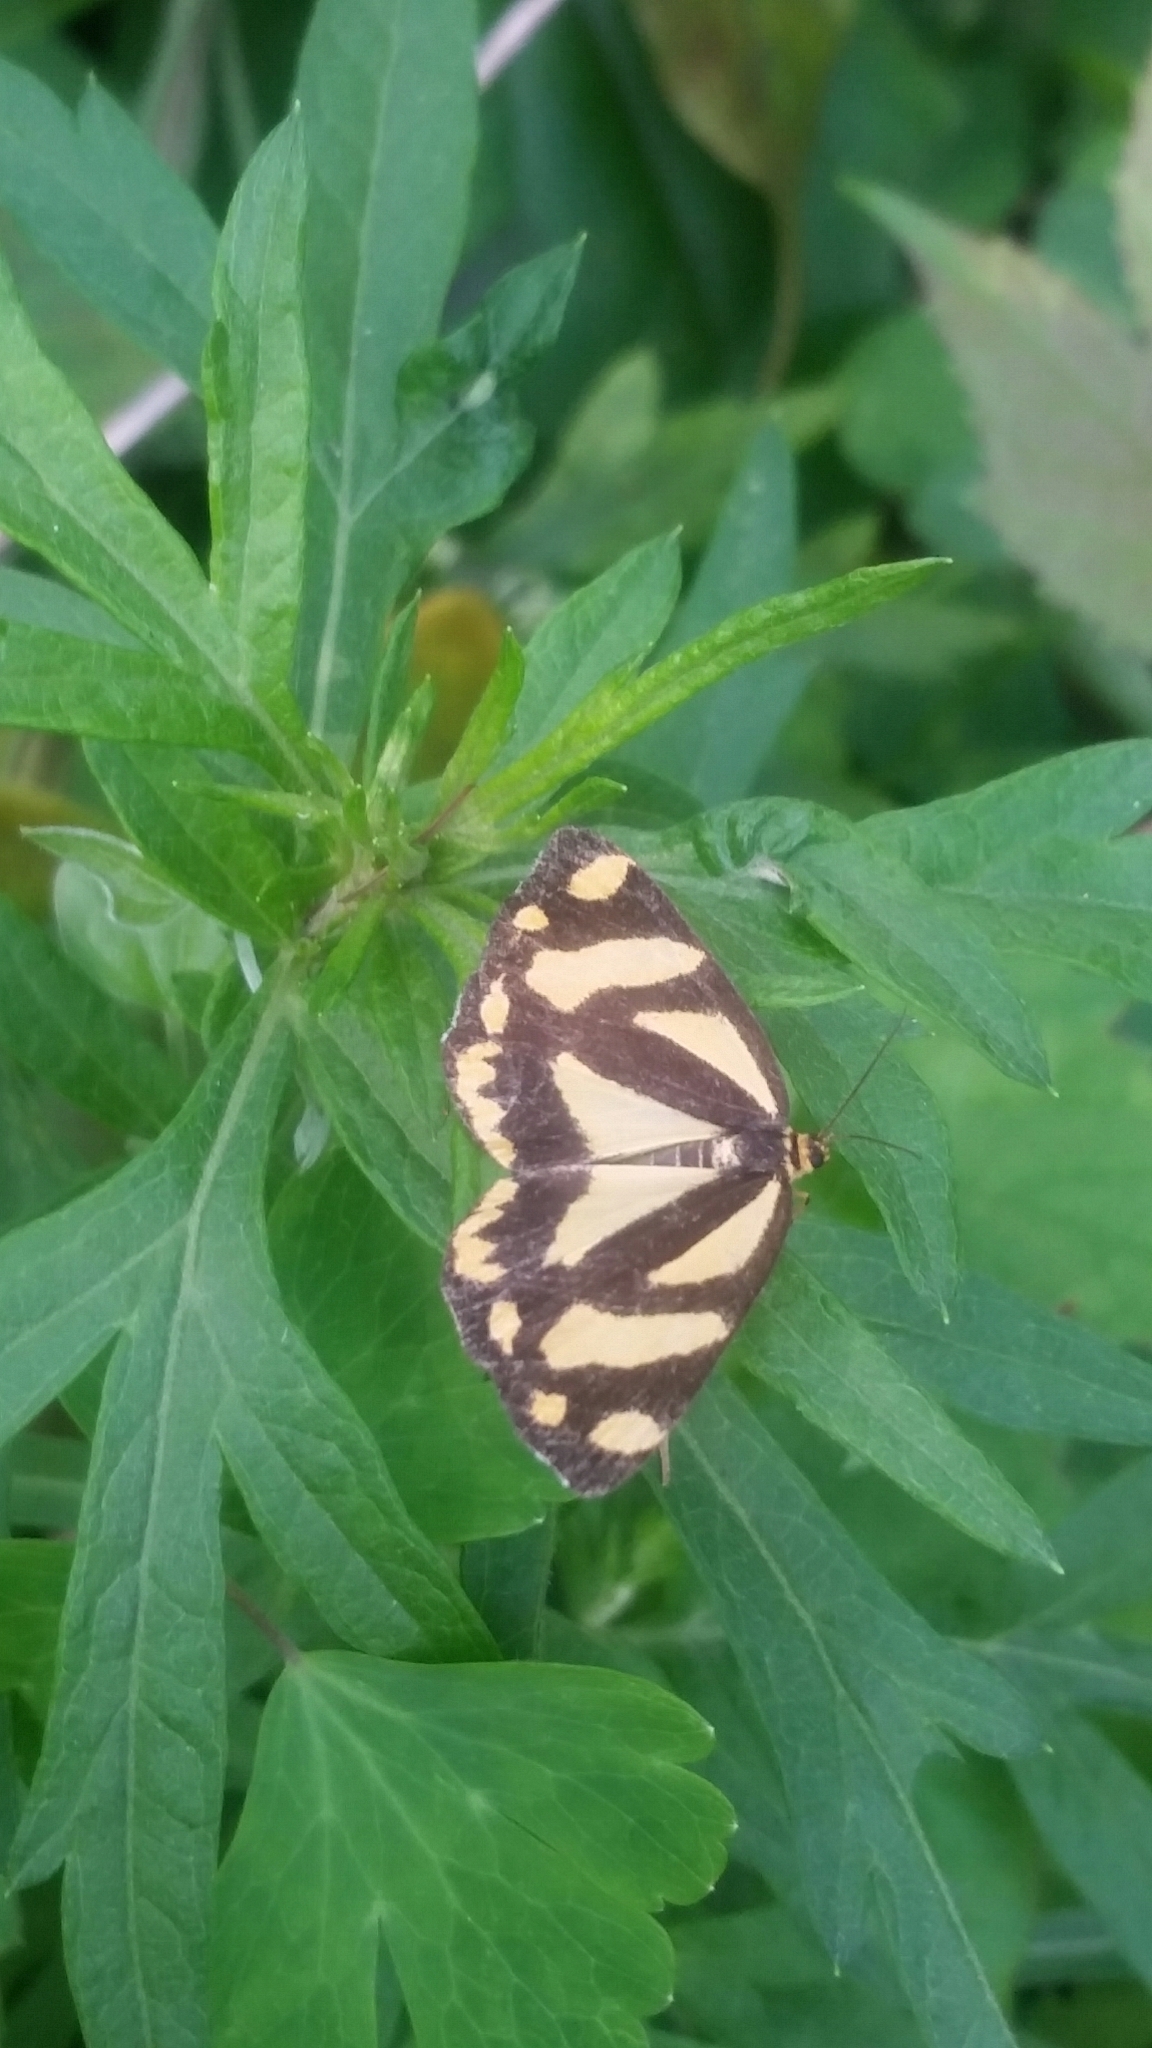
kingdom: Animalia
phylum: Arthropoda
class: Insecta
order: Lepidoptera
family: Epicopeiidae
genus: Psychostrophia
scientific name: Psychostrophia melanargia
